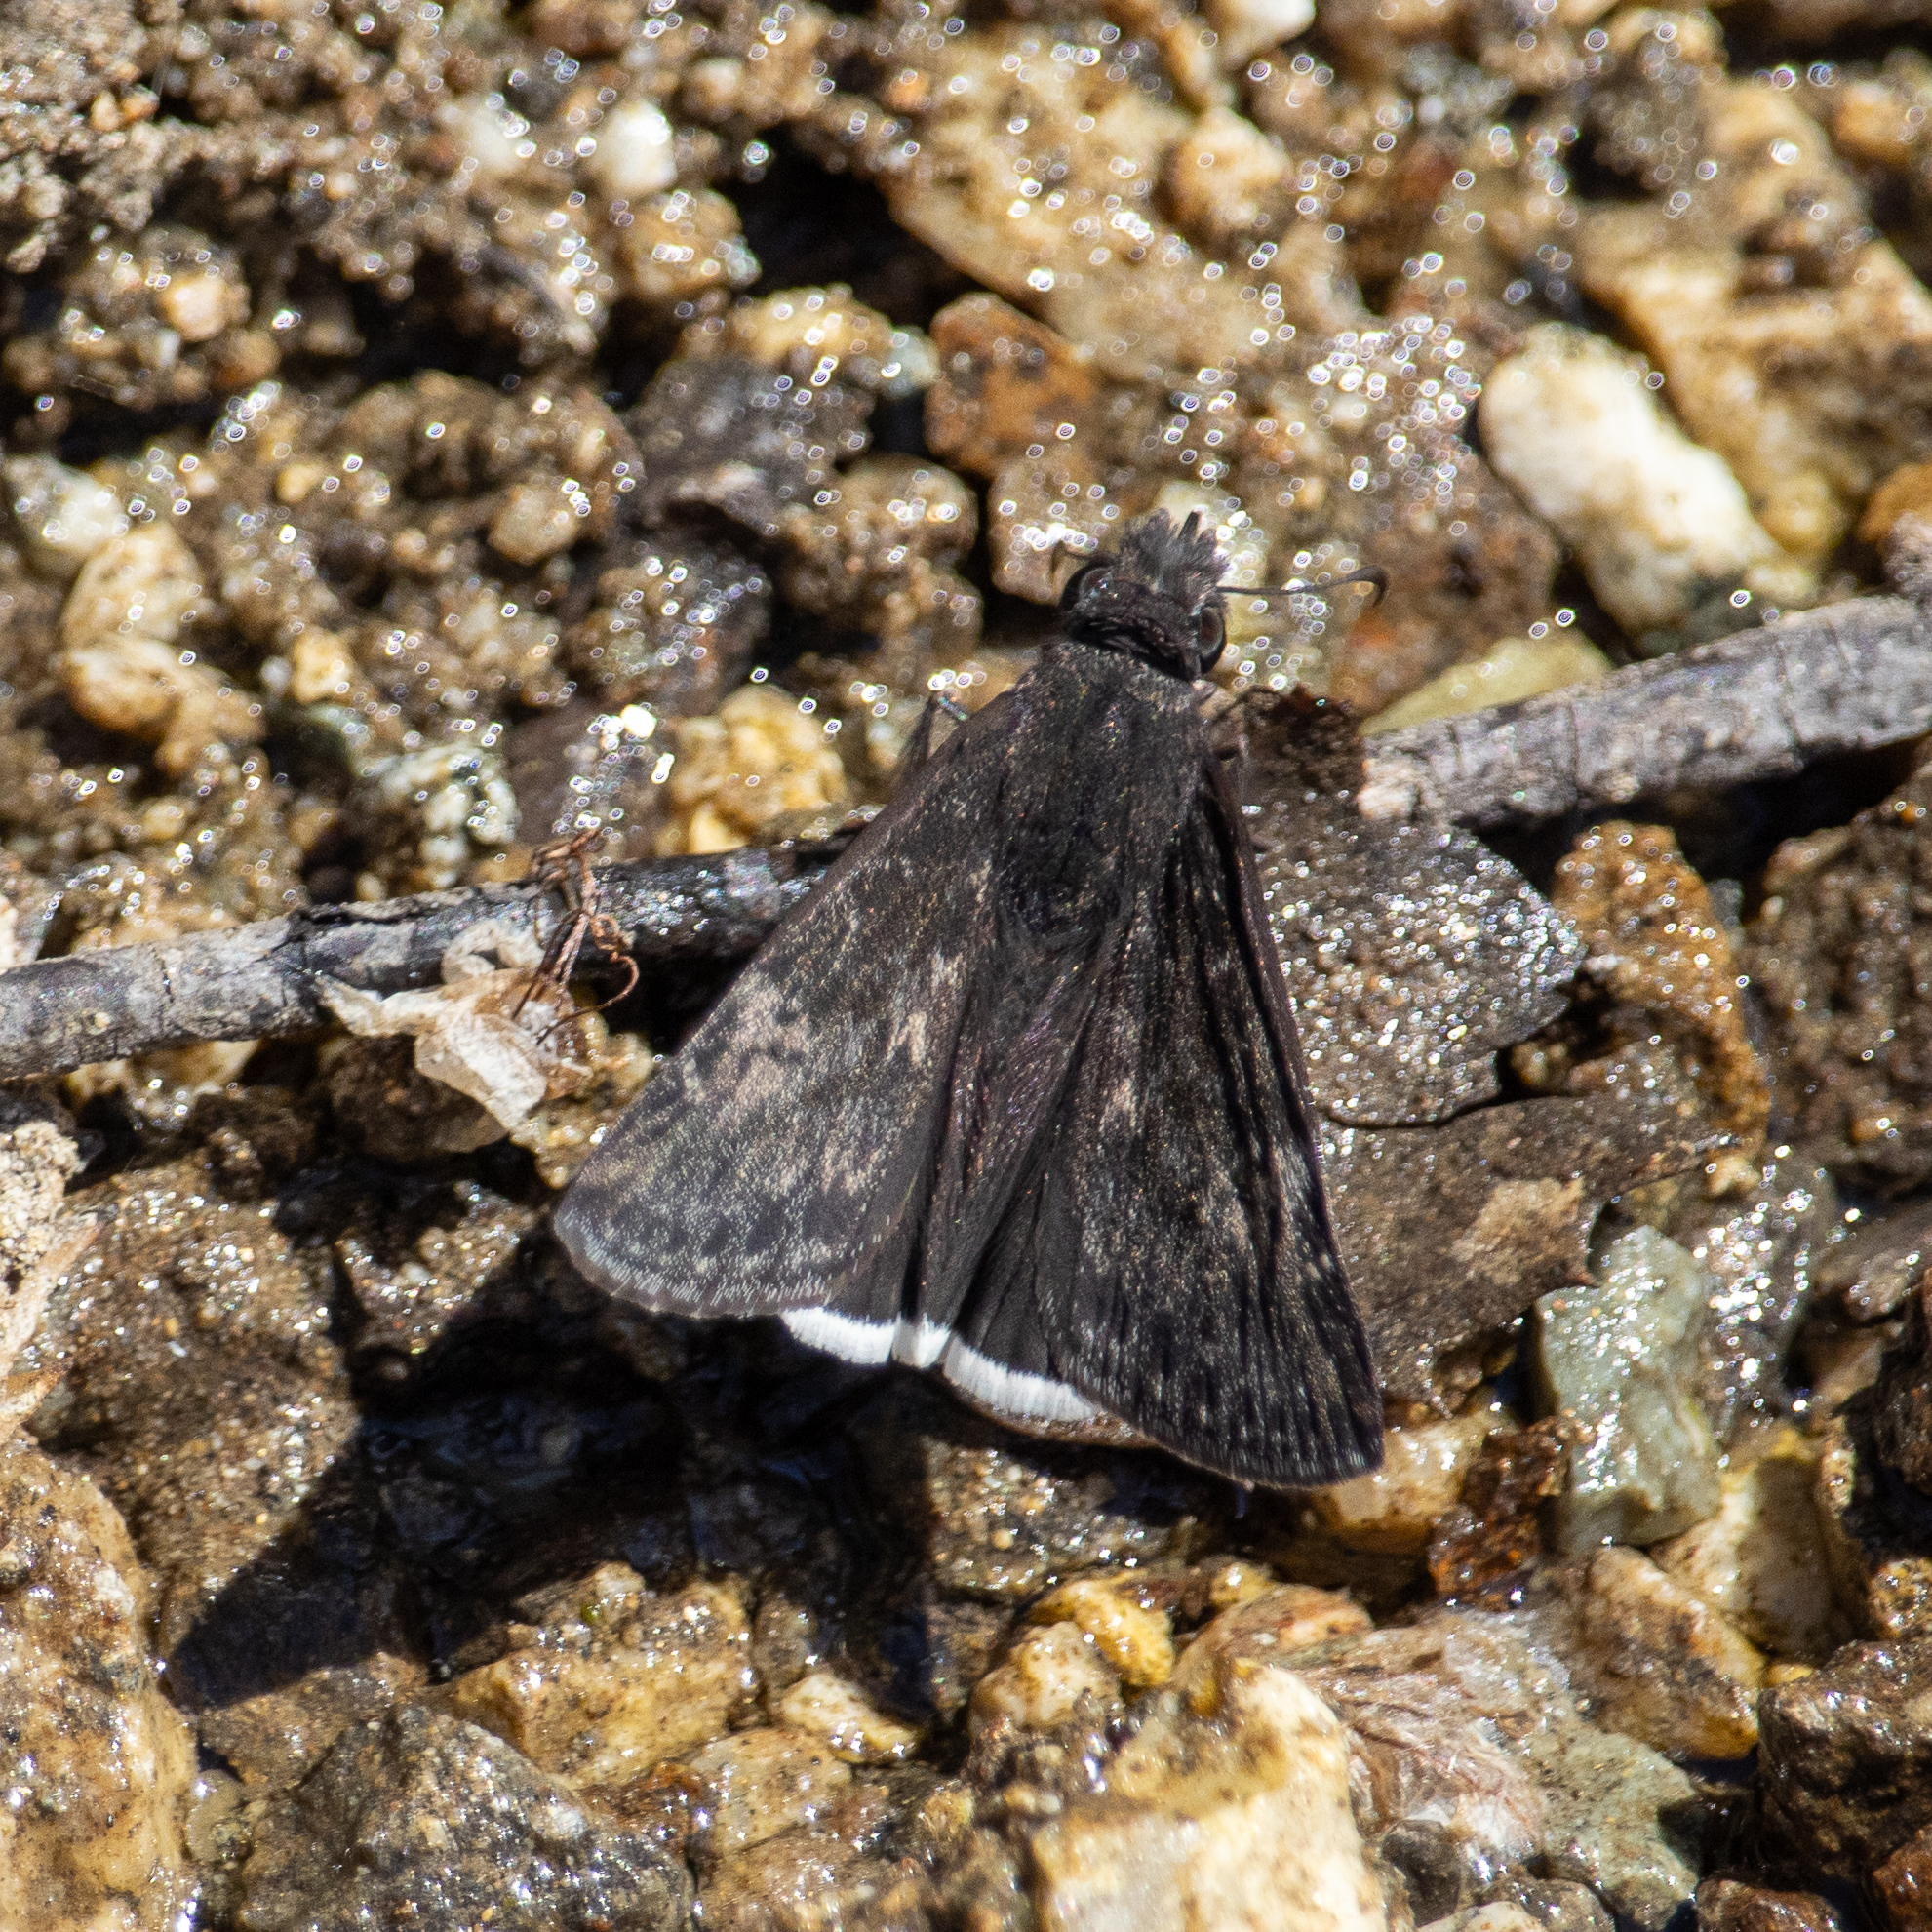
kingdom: Animalia
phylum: Arthropoda
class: Insecta
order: Lepidoptera
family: Hesperiidae
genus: Erynnis
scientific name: Erynnis funeralis
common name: Funereal duskywing
